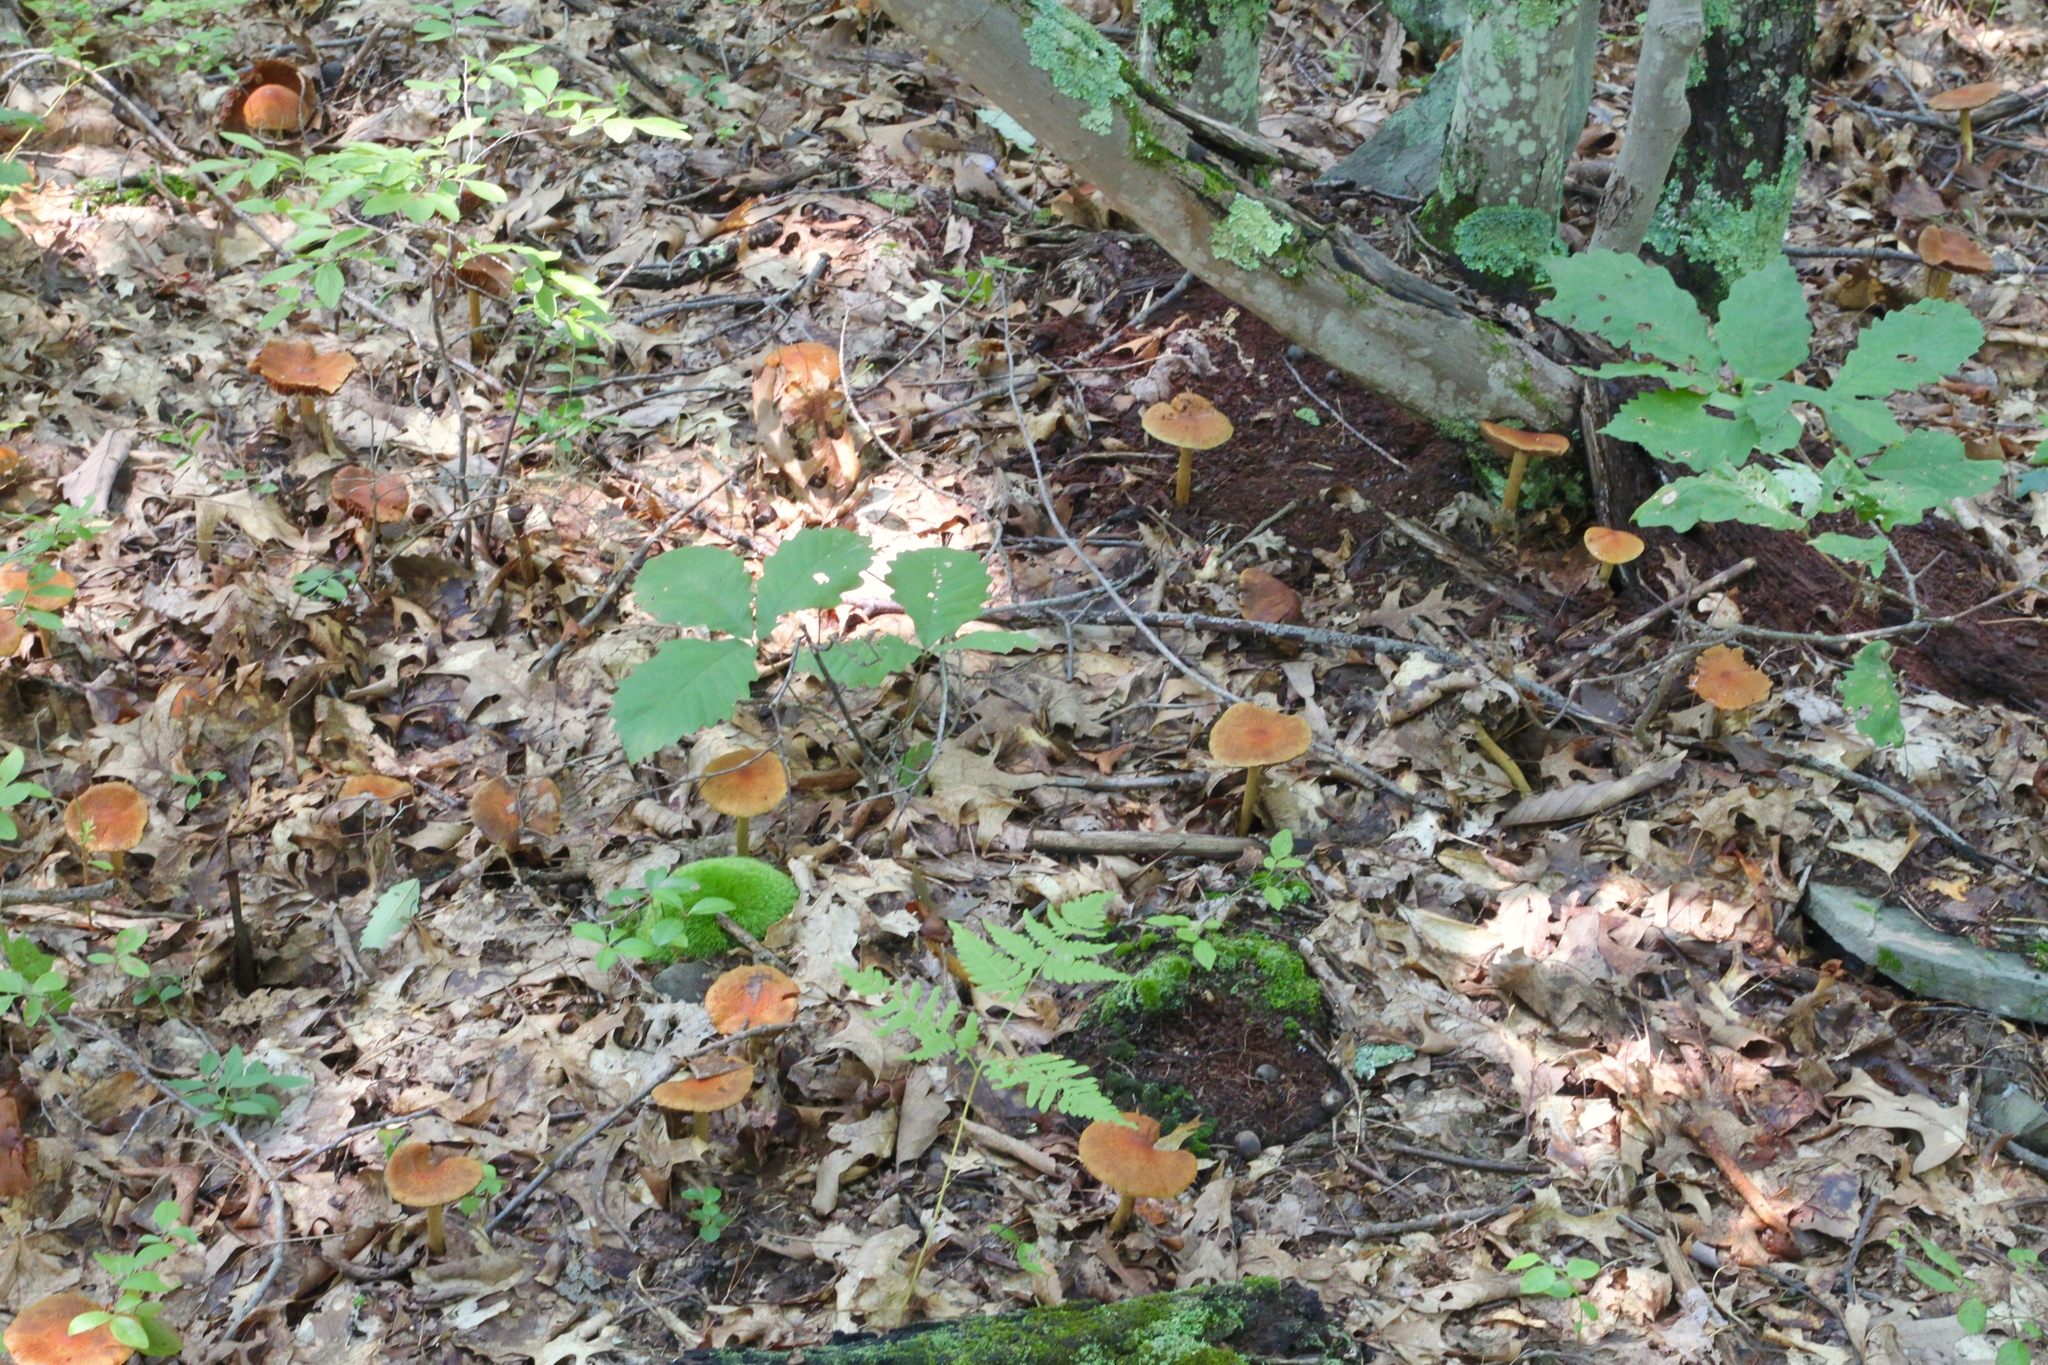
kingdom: Fungi
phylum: Basidiomycota
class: Agaricomycetes
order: Agaricales
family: Cortinariaceae
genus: Cortinarius
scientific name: Cortinarius corrugatus
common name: Wrinkled cortinarius
